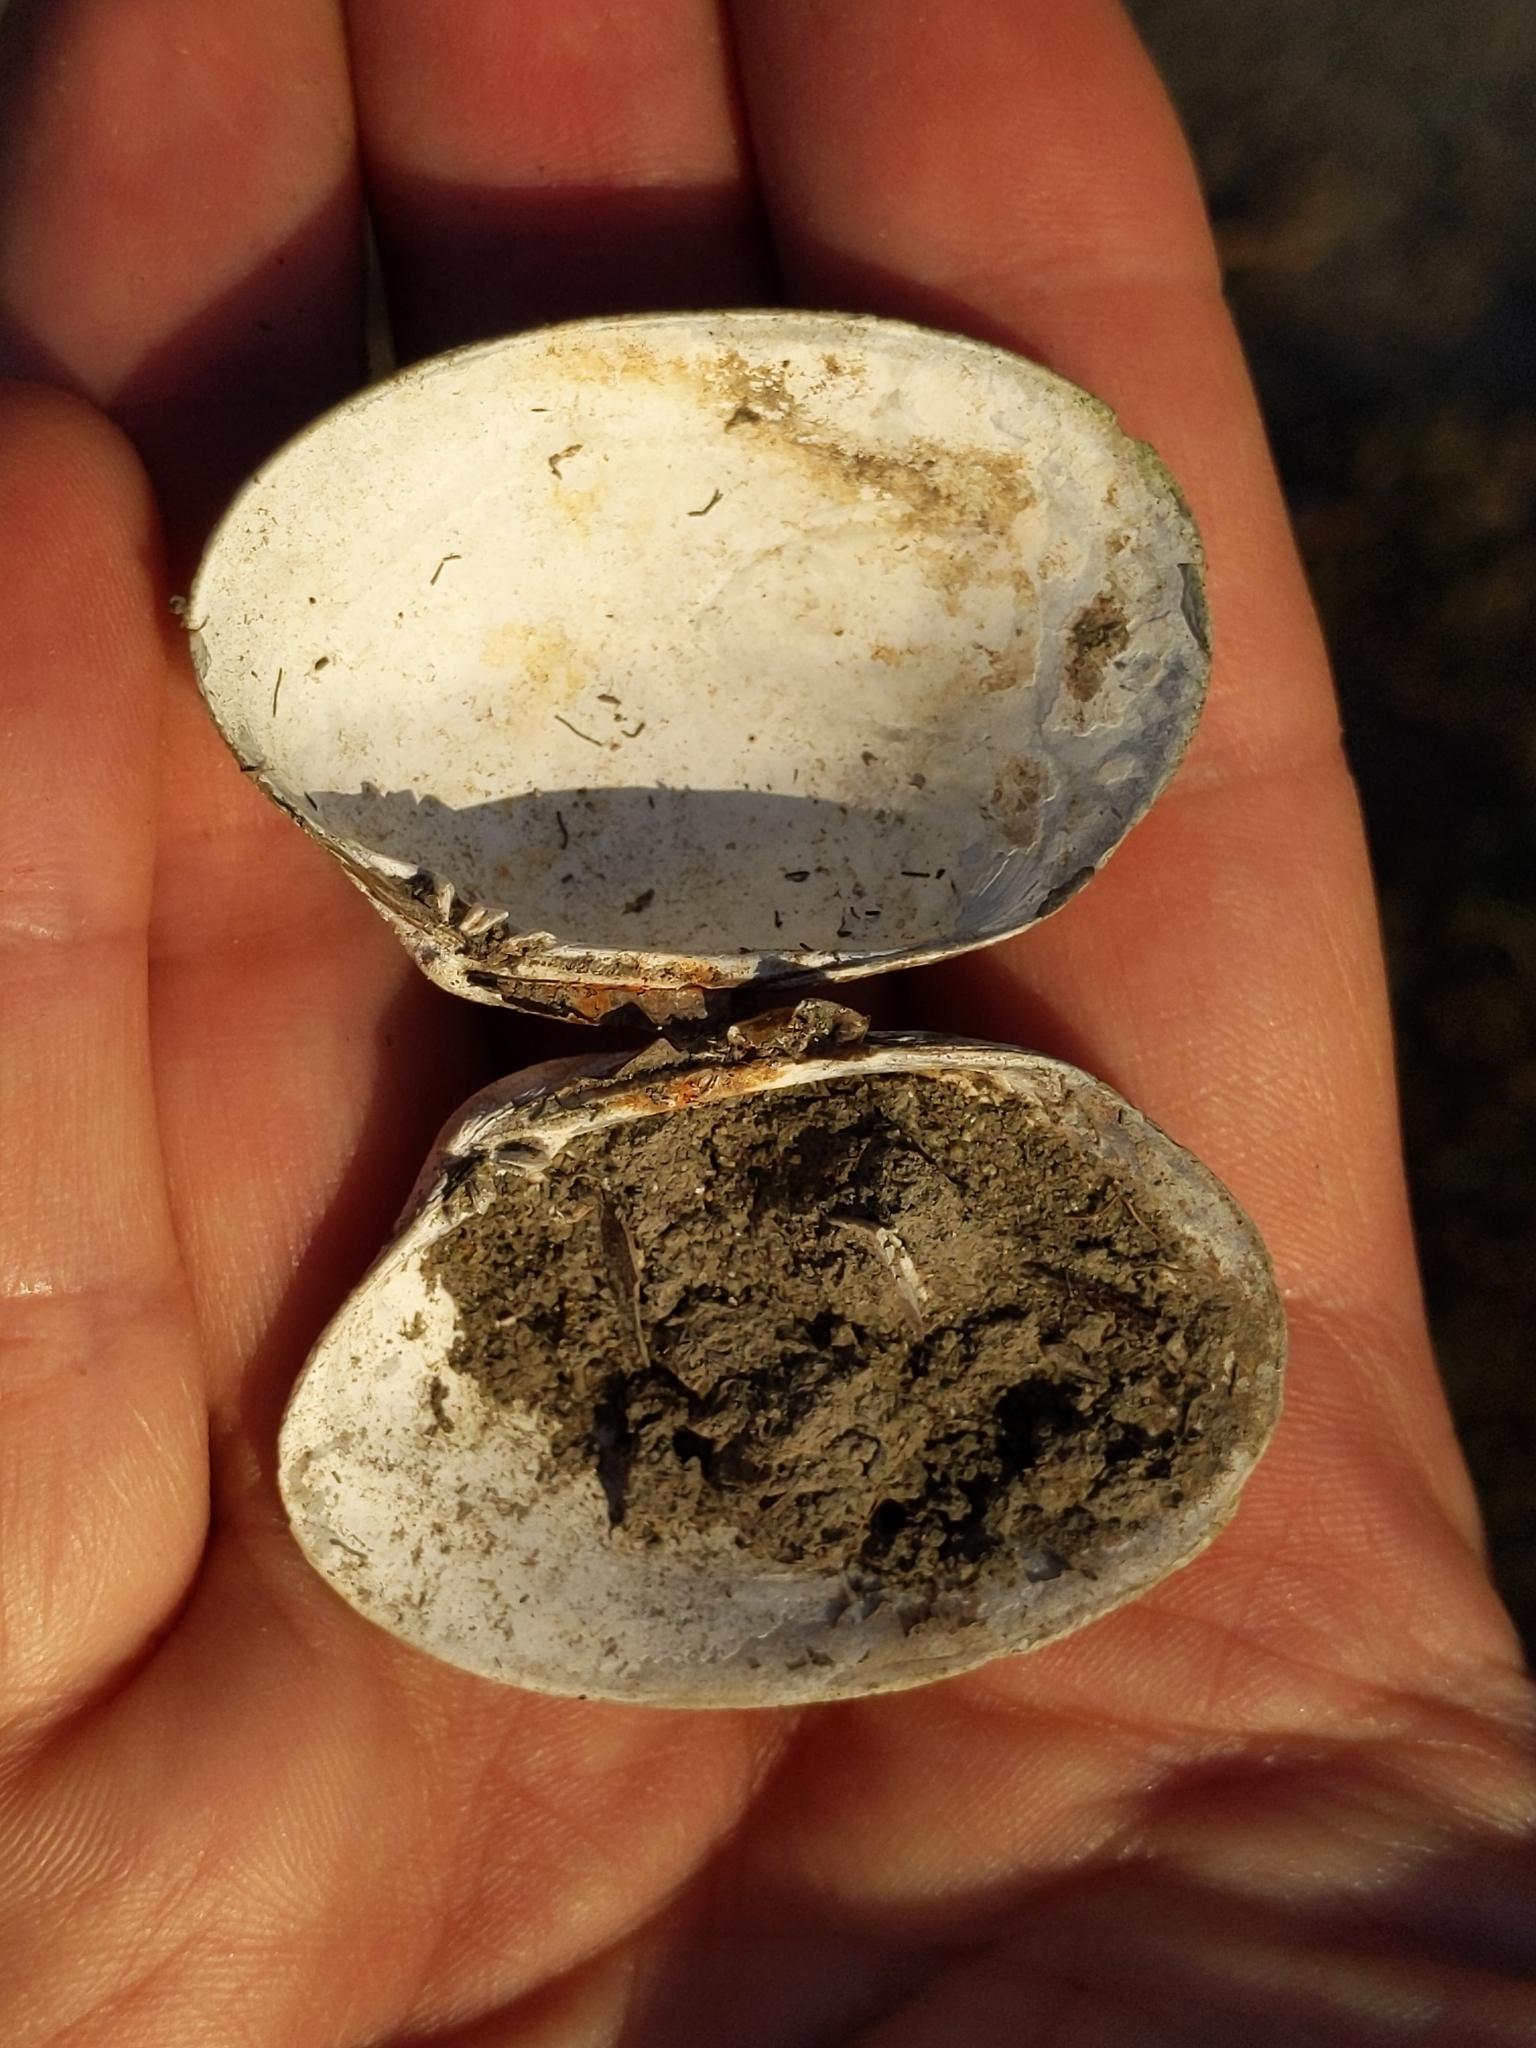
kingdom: Animalia
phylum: Mollusca
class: Bivalvia
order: Venerida
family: Veneridae
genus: Ruditapes
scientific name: Ruditapes philippinarum
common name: Manila clam
